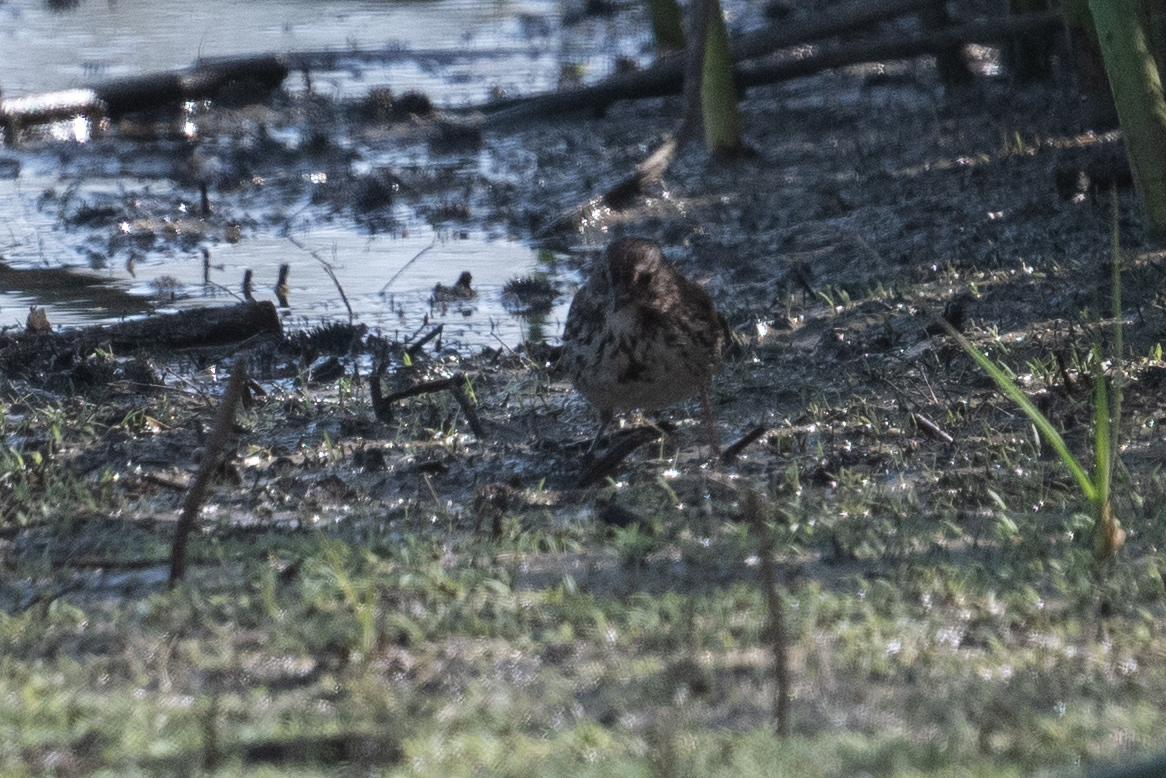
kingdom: Animalia
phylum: Chordata
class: Aves
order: Passeriformes
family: Passerellidae
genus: Melospiza
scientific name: Melospiza melodia
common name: Song sparrow
